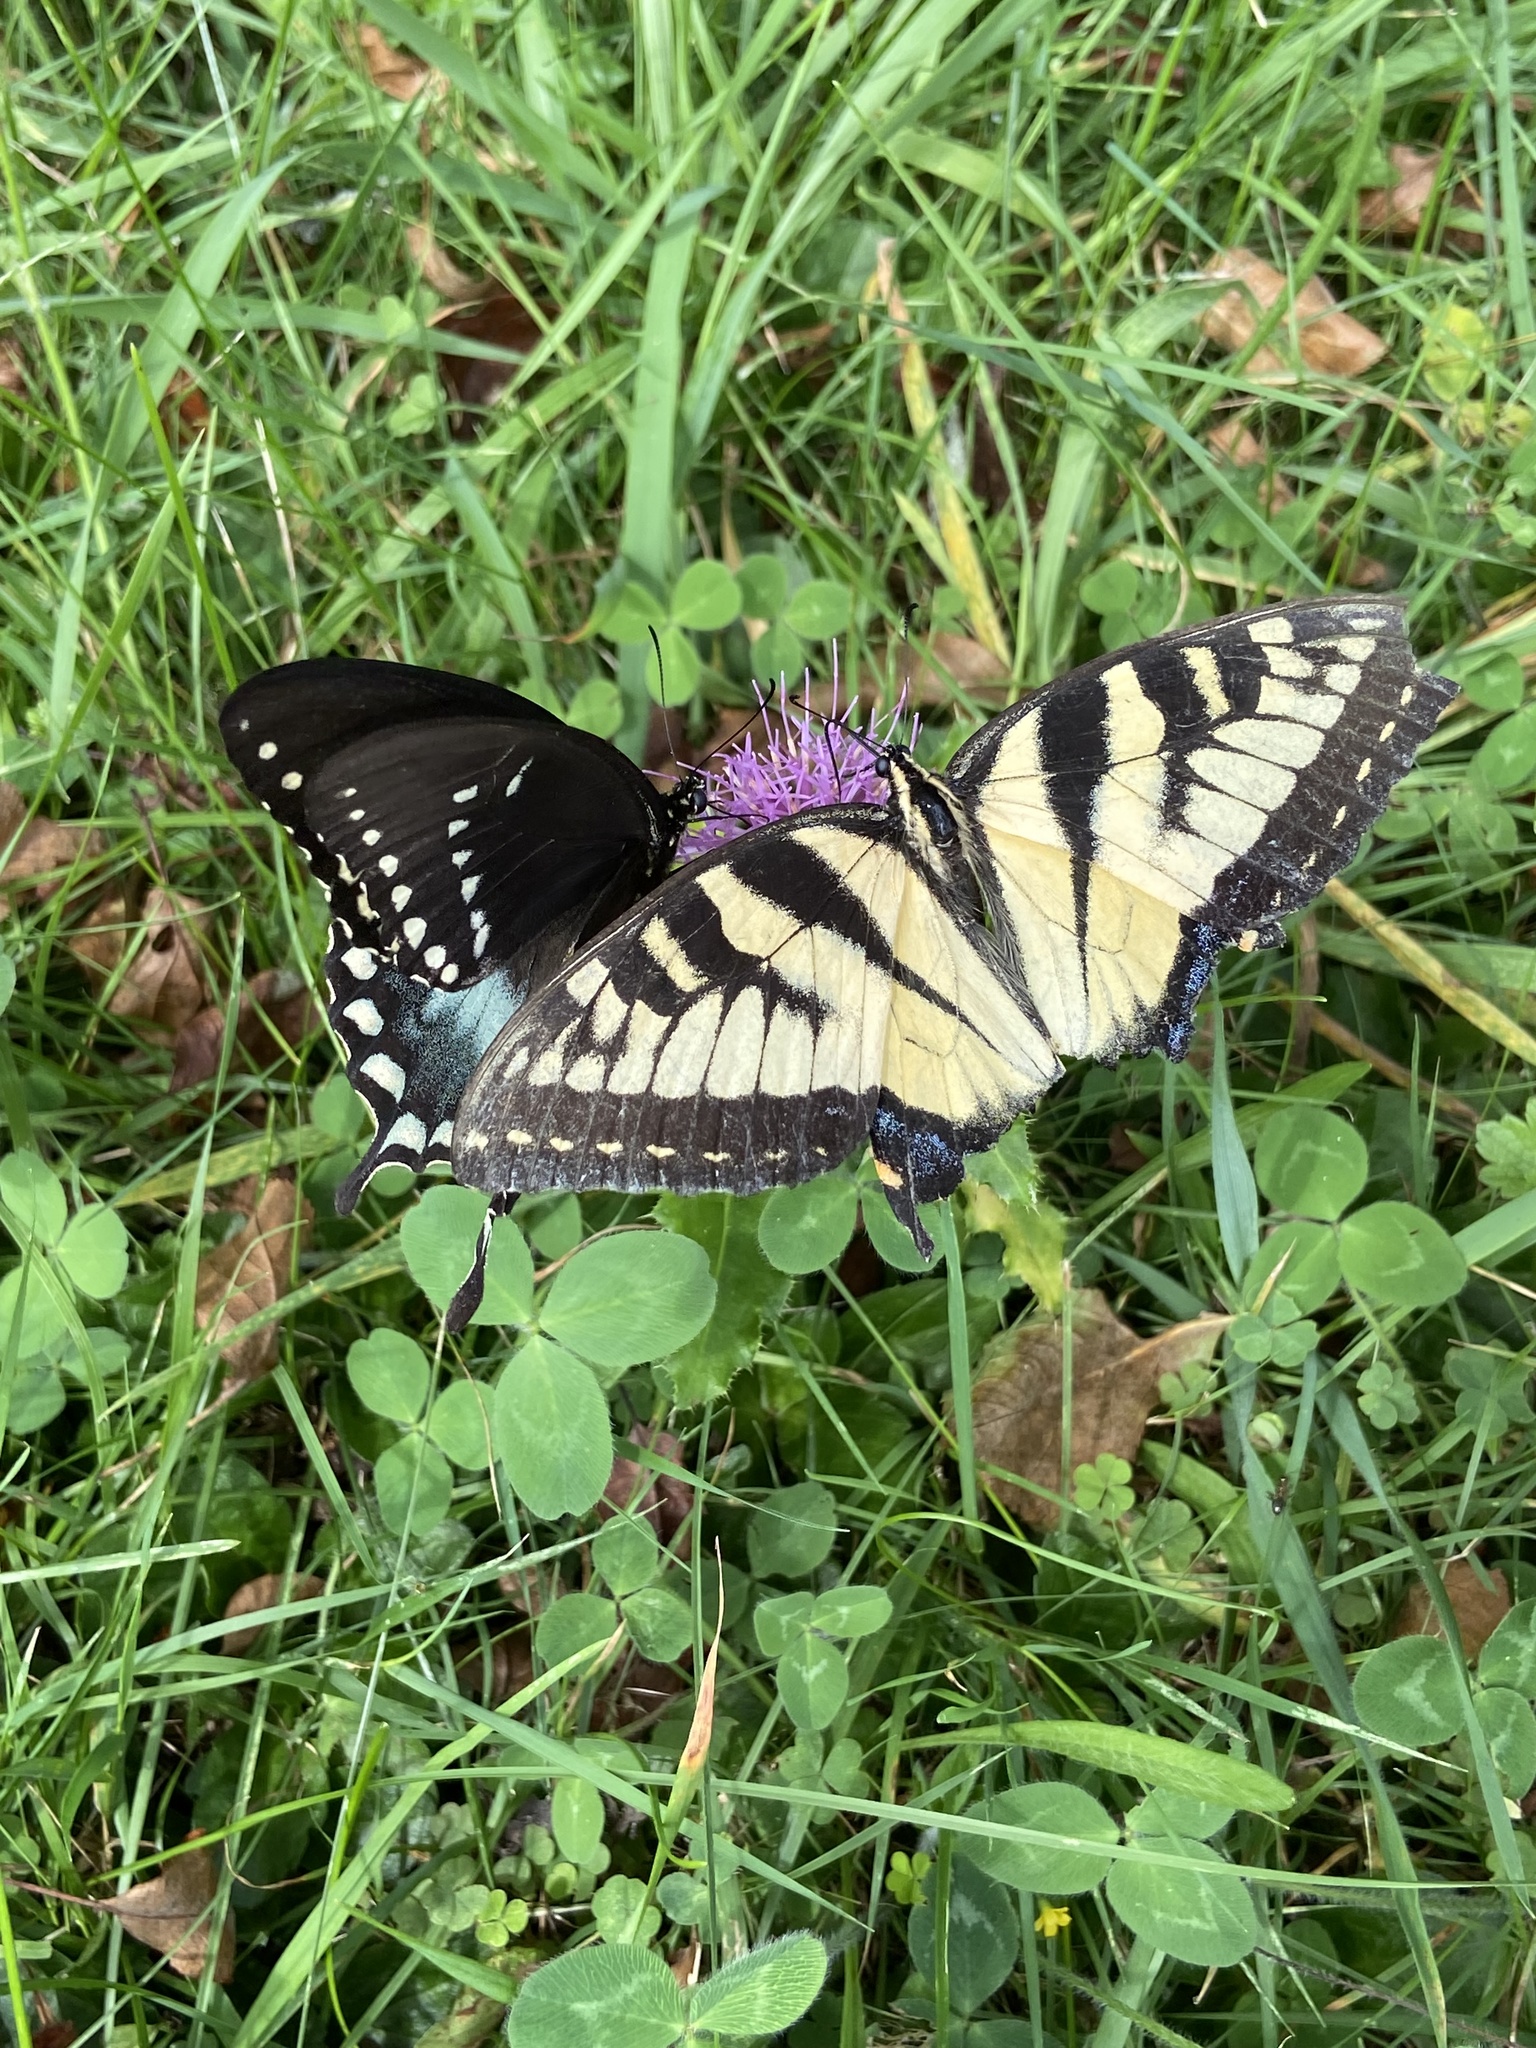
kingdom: Animalia
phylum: Arthropoda
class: Insecta
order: Lepidoptera
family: Papilionidae
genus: Papilio
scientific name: Papilio glaucus
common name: Tiger swallowtail
